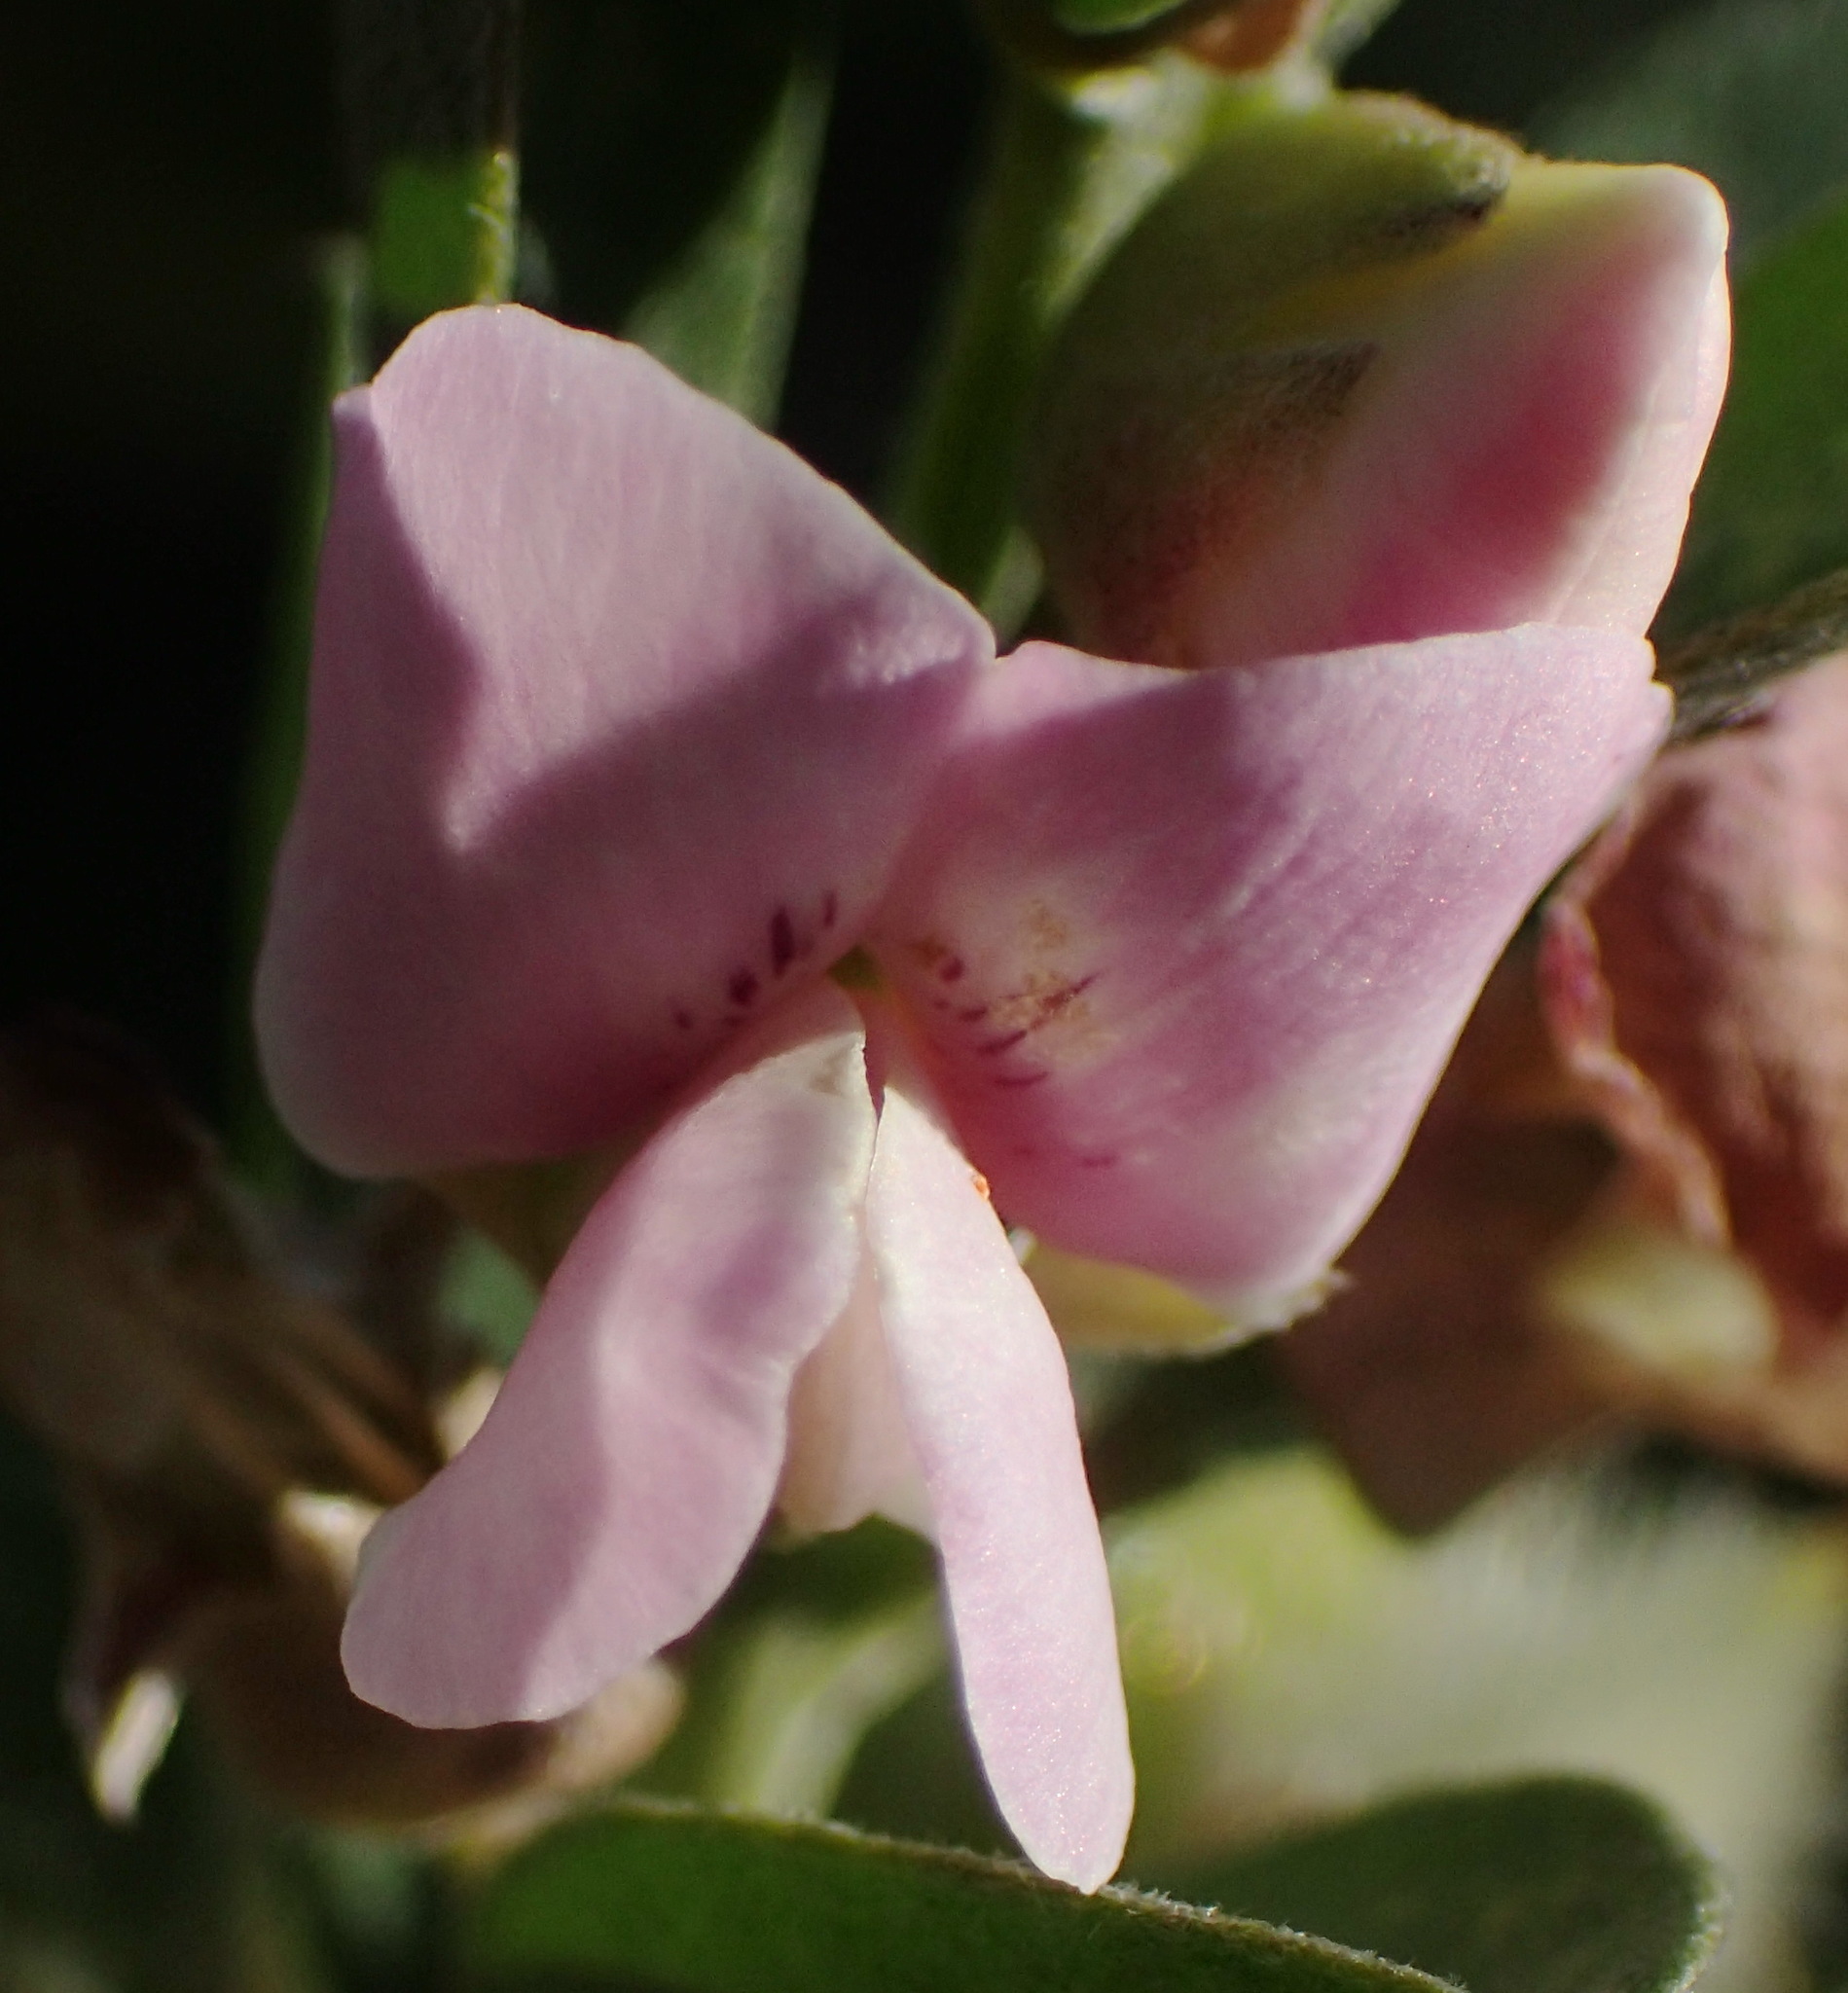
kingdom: Plantae
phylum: Tracheophyta
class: Magnoliopsida
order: Fabales
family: Fabaceae
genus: Podalyria
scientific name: Podalyria myrtillifolia
